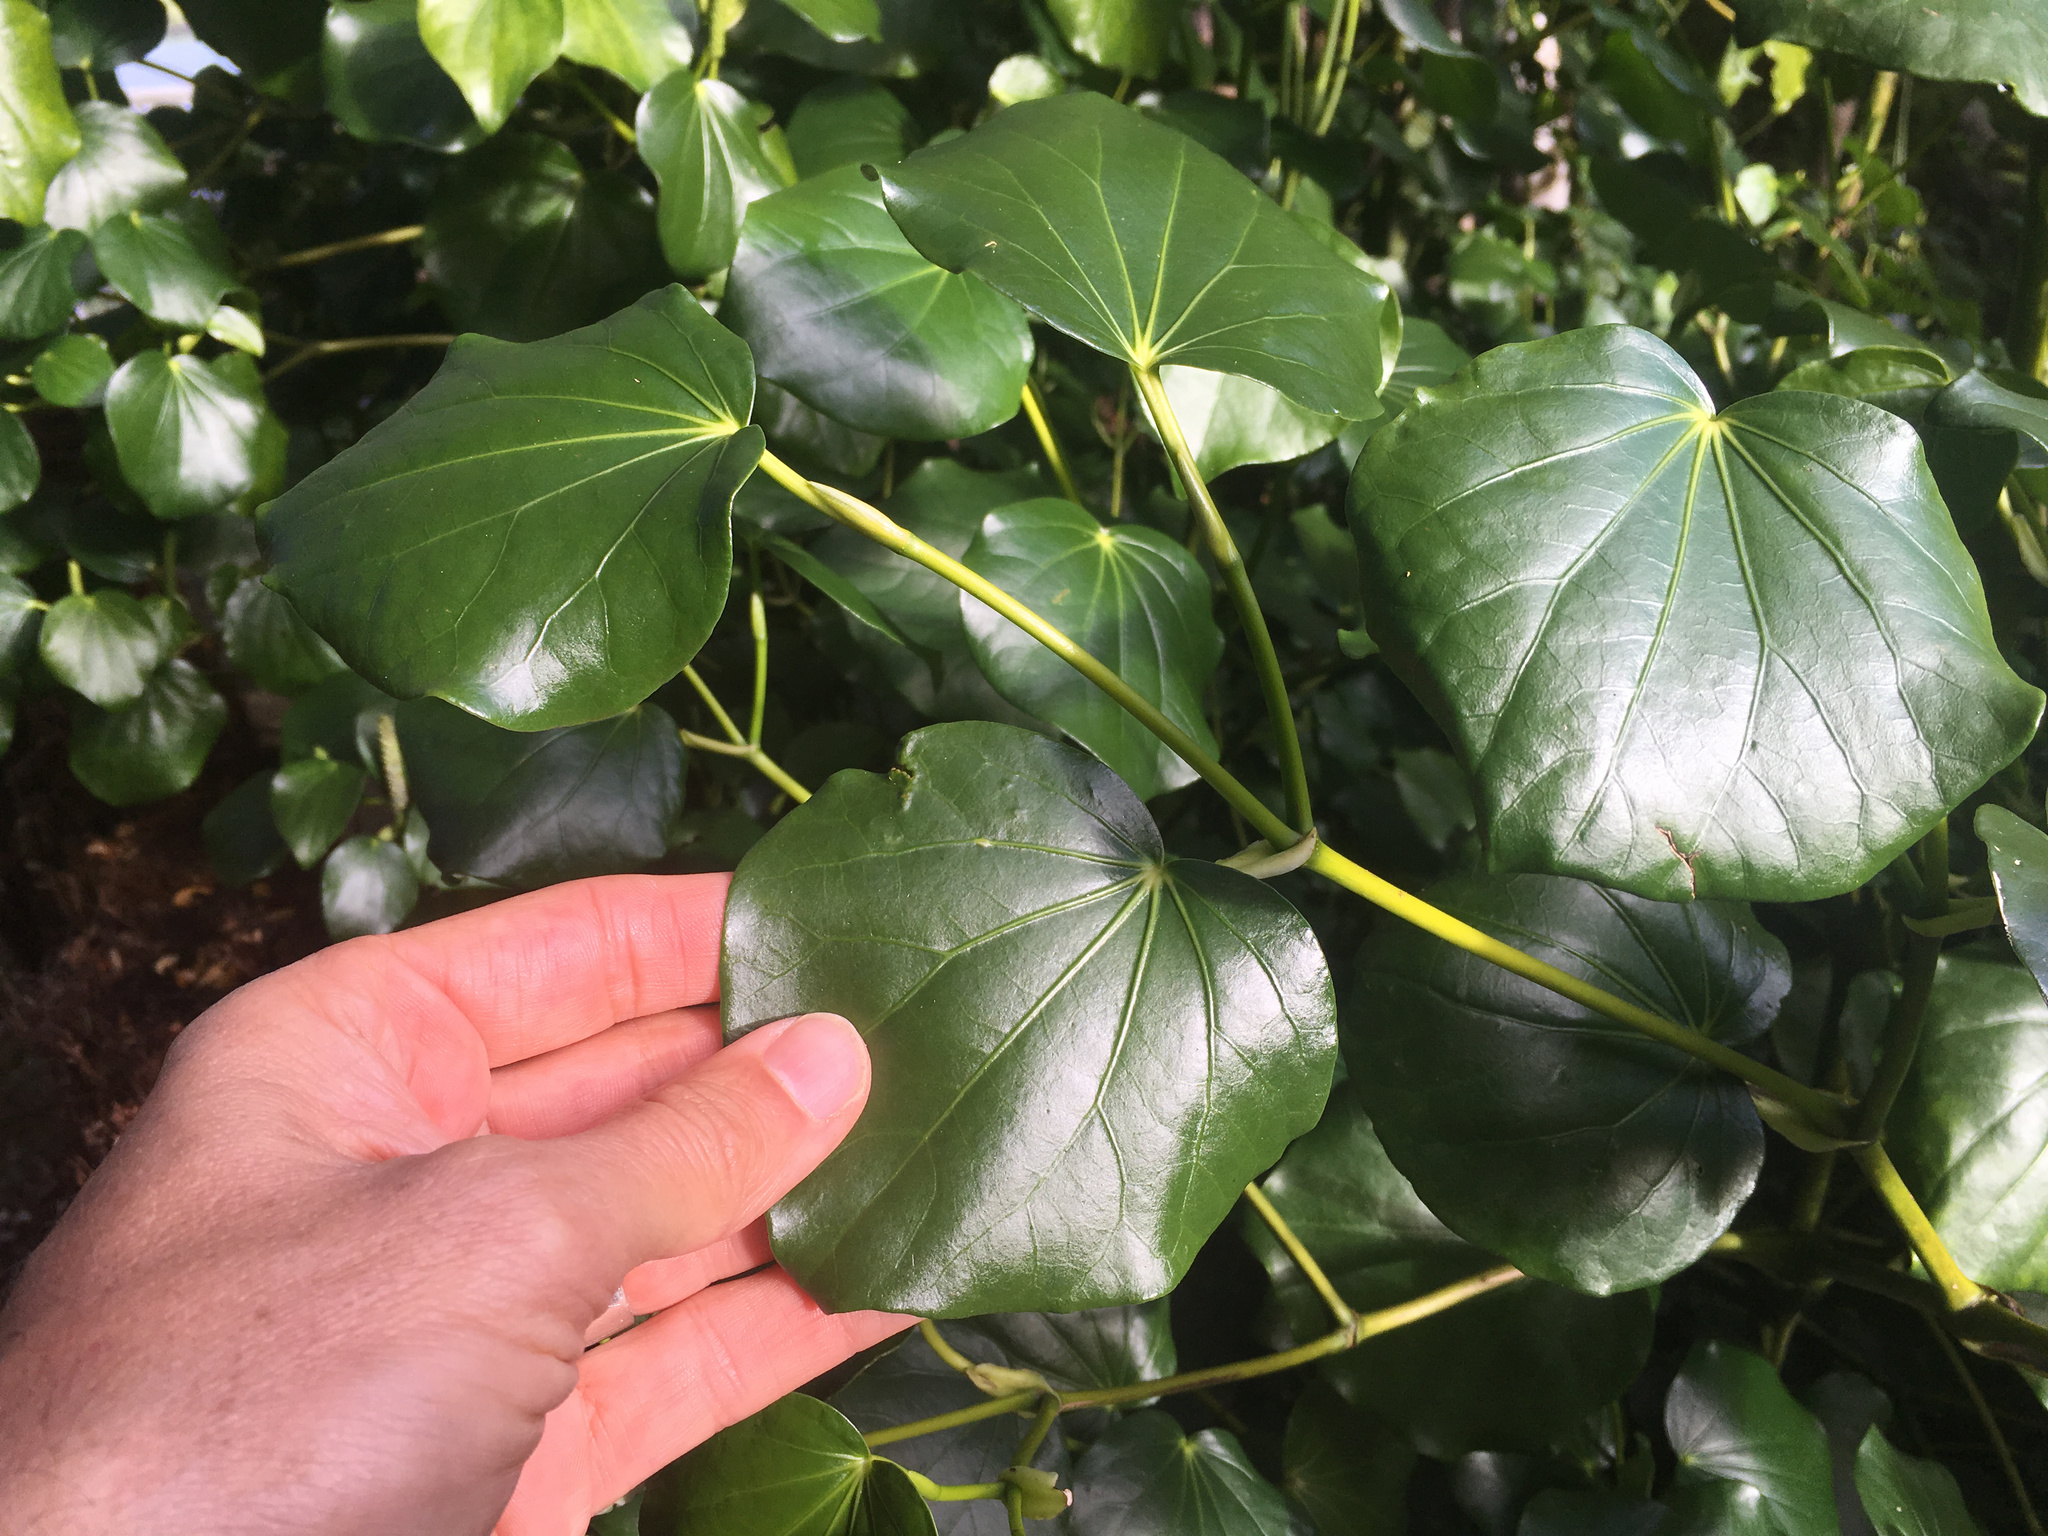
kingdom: Plantae
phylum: Tracheophyta
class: Magnoliopsida
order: Piperales
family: Piperaceae
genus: Macropiper
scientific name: Macropiper excelsum
